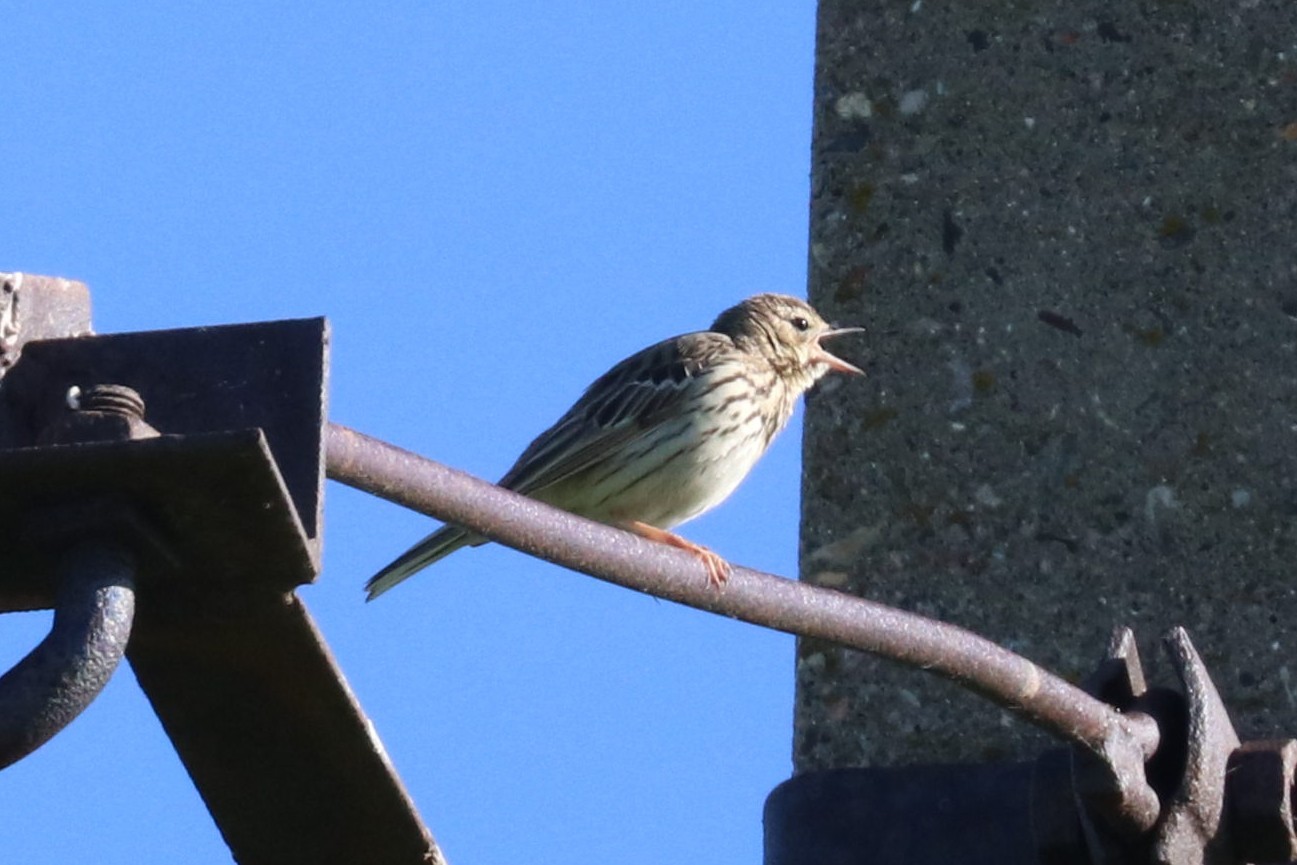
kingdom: Animalia
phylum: Chordata
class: Aves
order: Passeriformes
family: Motacillidae
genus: Anthus
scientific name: Anthus trivialis
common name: Tree pipit
